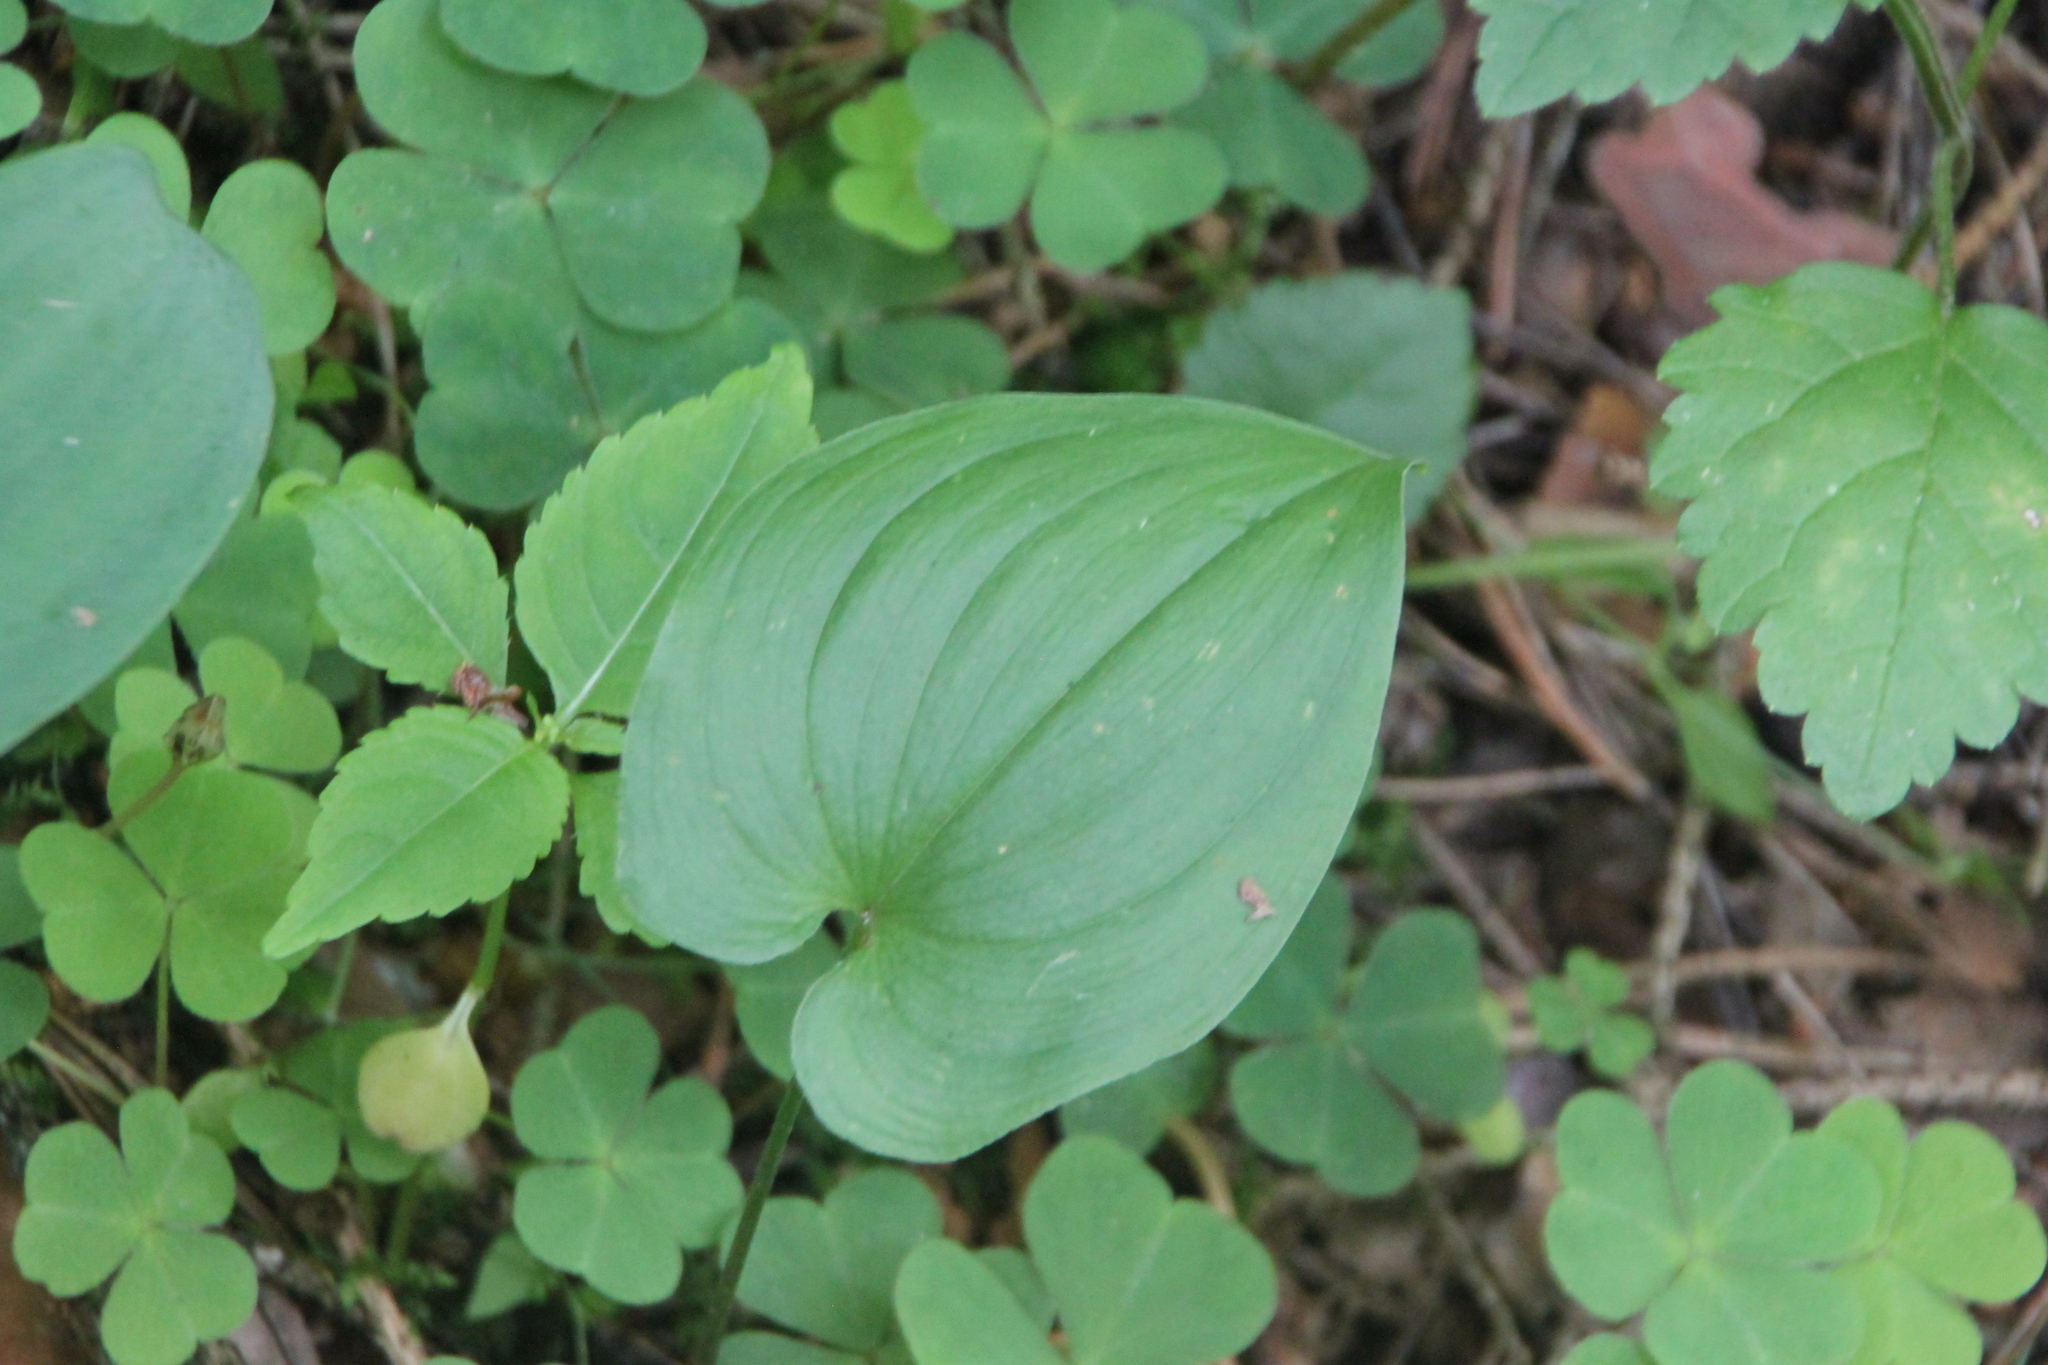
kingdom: Plantae
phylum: Tracheophyta
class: Liliopsida
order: Asparagales
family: Asparagaceae
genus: Maianthemum
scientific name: Maianthemum bifolium
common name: May lily
